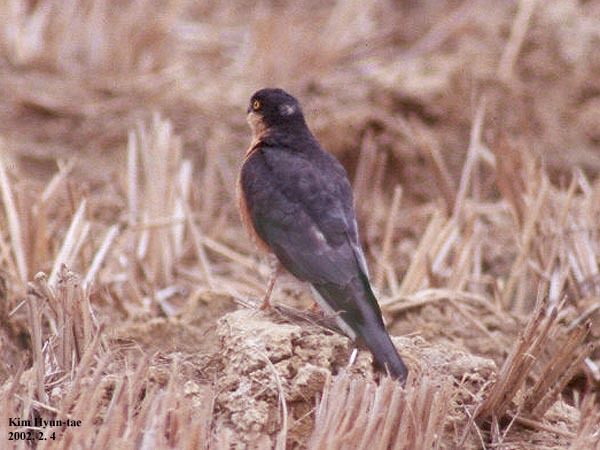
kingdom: Animalia
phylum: Chordata
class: Aves
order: Accipitriformes
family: Accipitridae
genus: Accipiter
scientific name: Accipiter nisus
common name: Eurasian sparrowhawk
